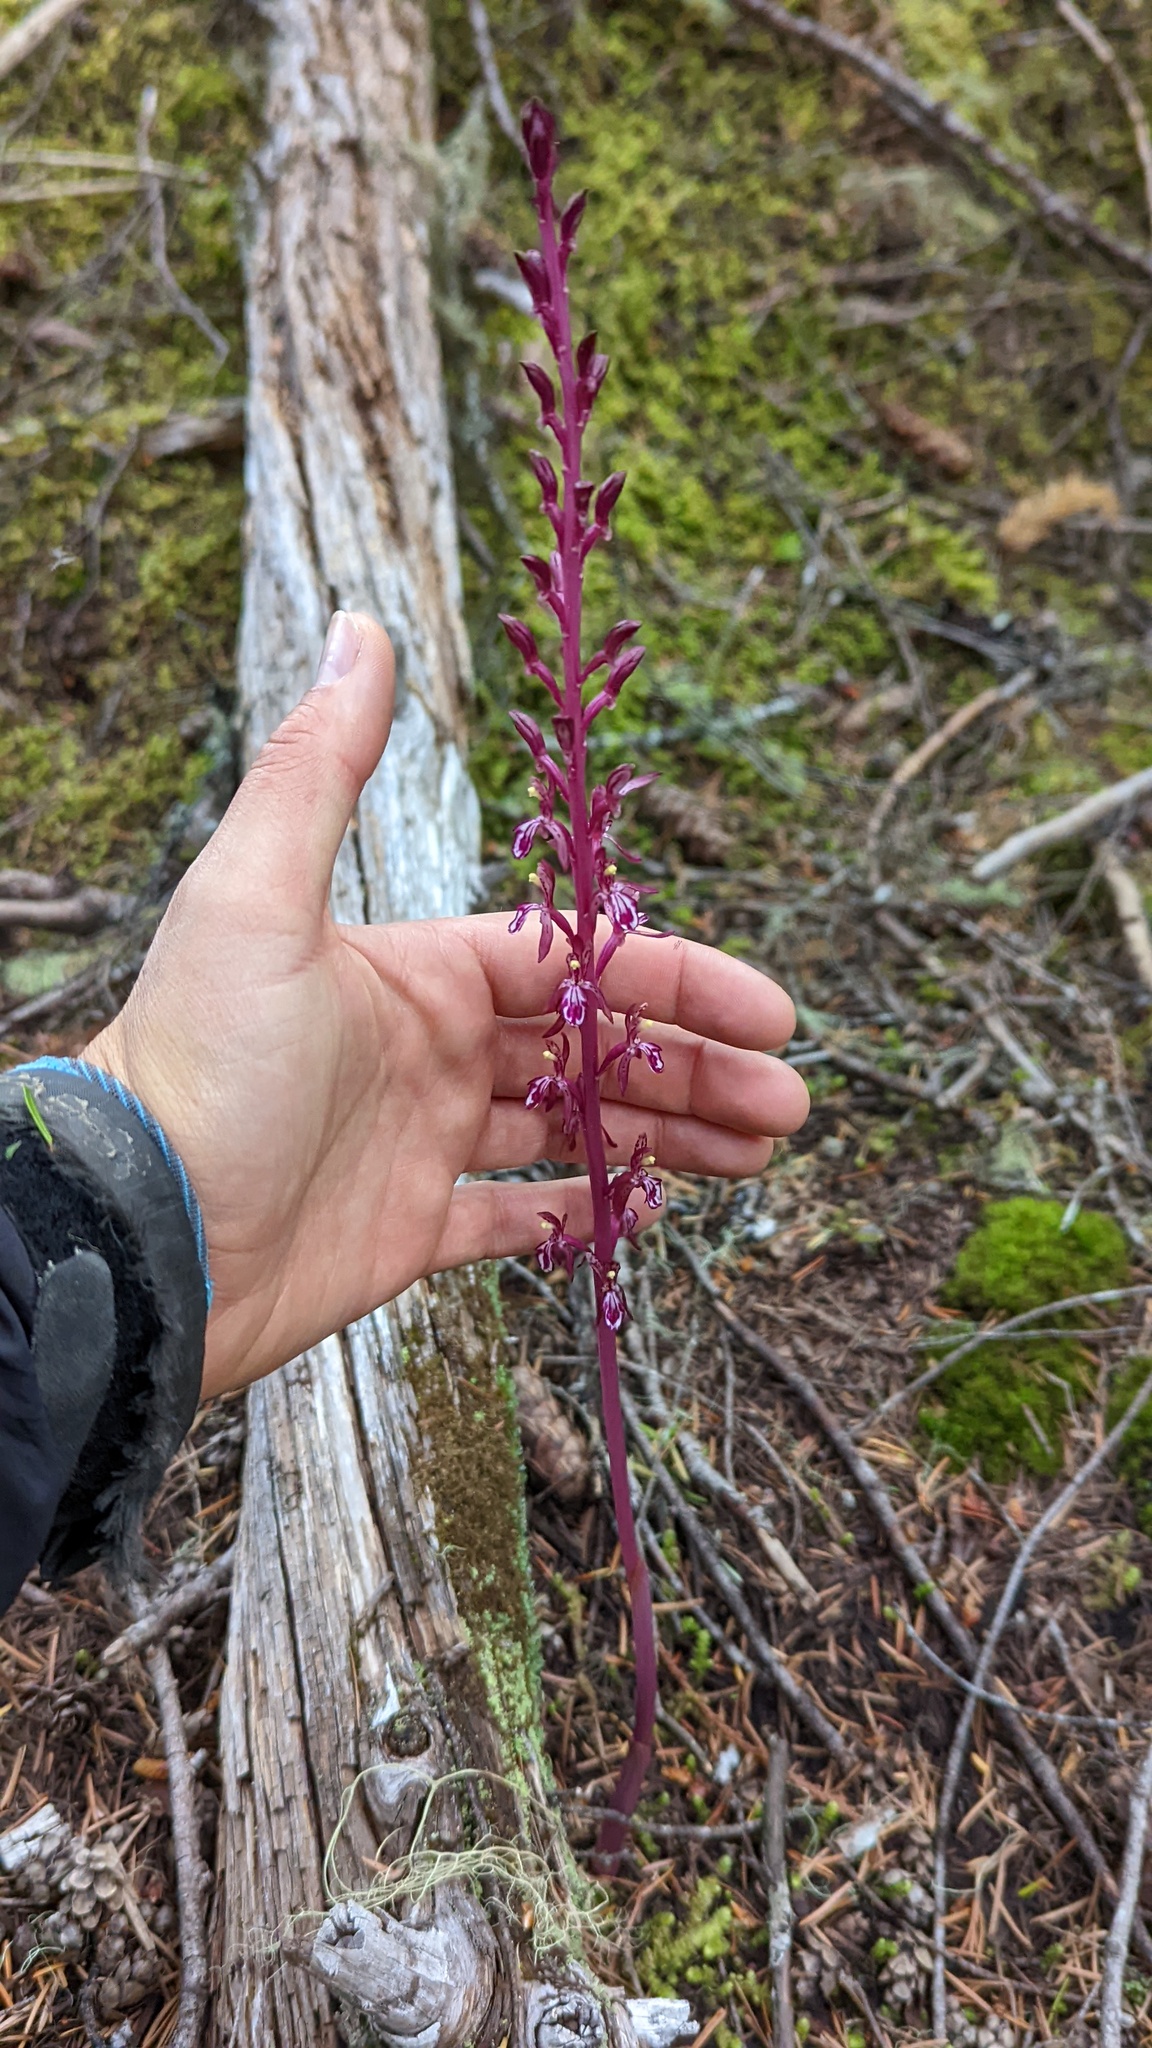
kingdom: Plantae
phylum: Tracheophyta
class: Liliopsida
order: Asparagales
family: Orchidaceae
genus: Corallorhiza
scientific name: Corallorhiza mertensiana
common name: Pacific coralroot
